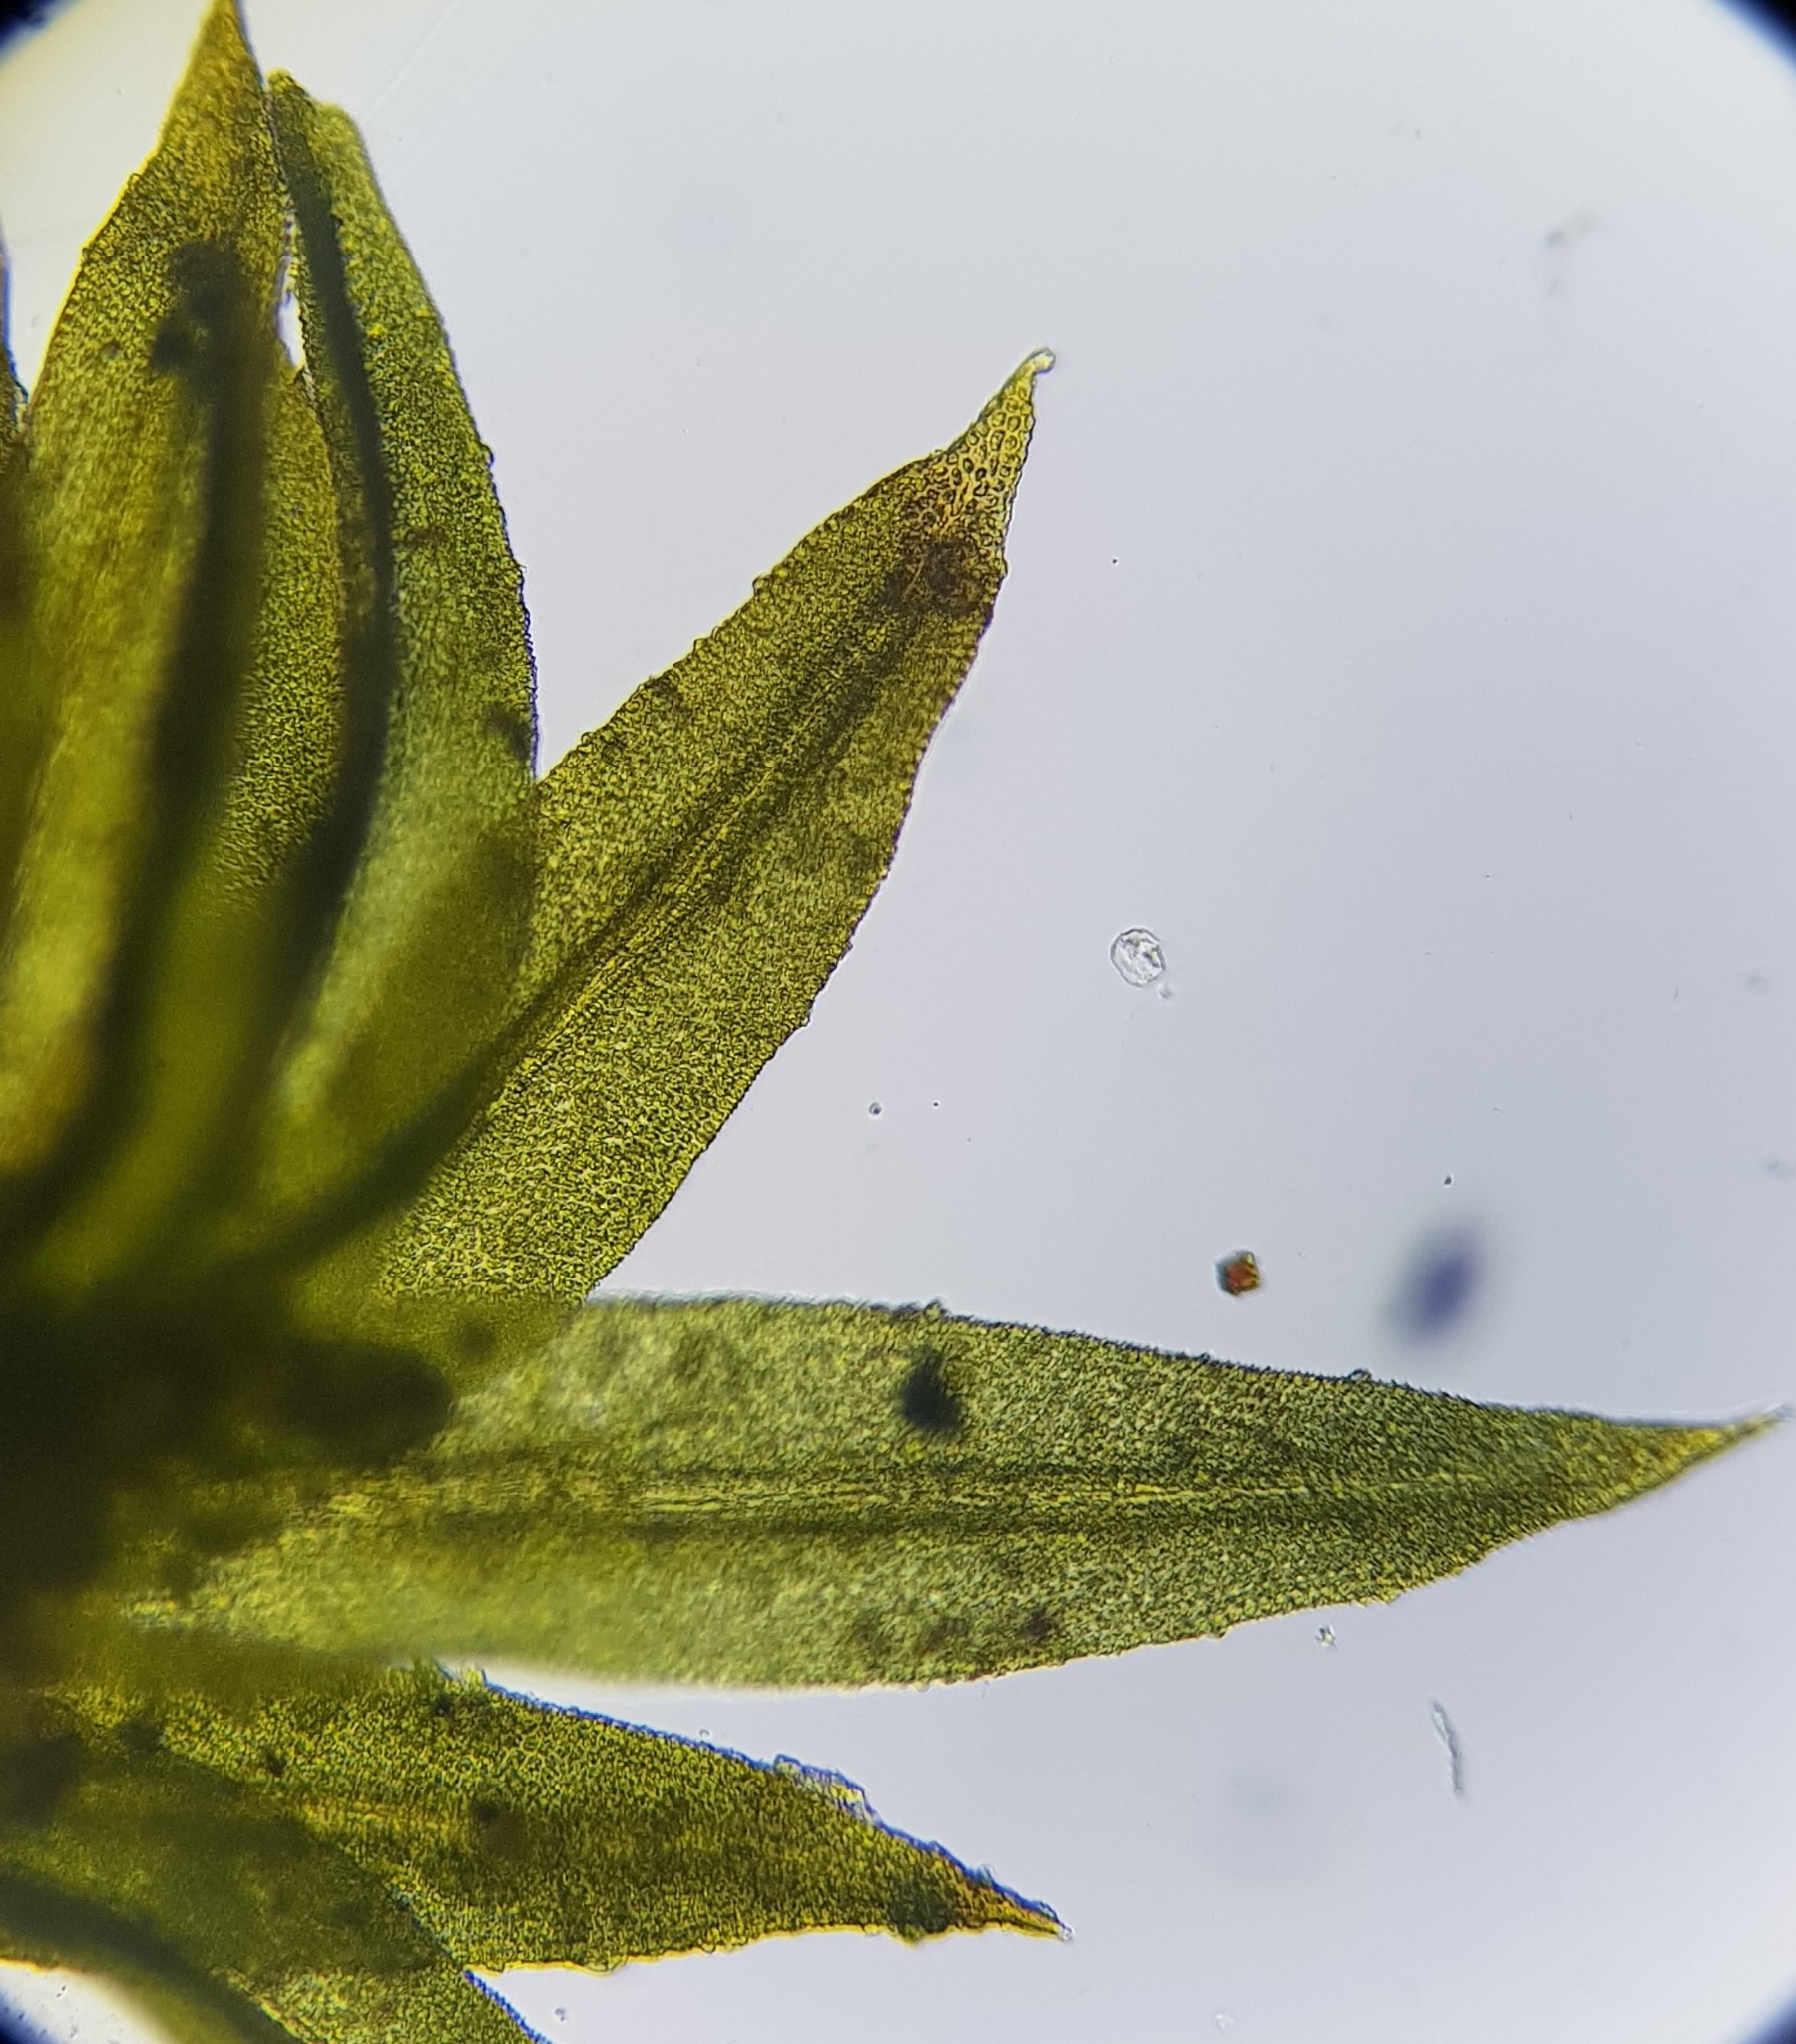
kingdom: Plantae
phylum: Bryophyta
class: Bryopsida
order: Orthotrichales
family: Orthotrichaceae
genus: Zygodon
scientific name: Zygodon viridissimus
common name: Green yoke moss
